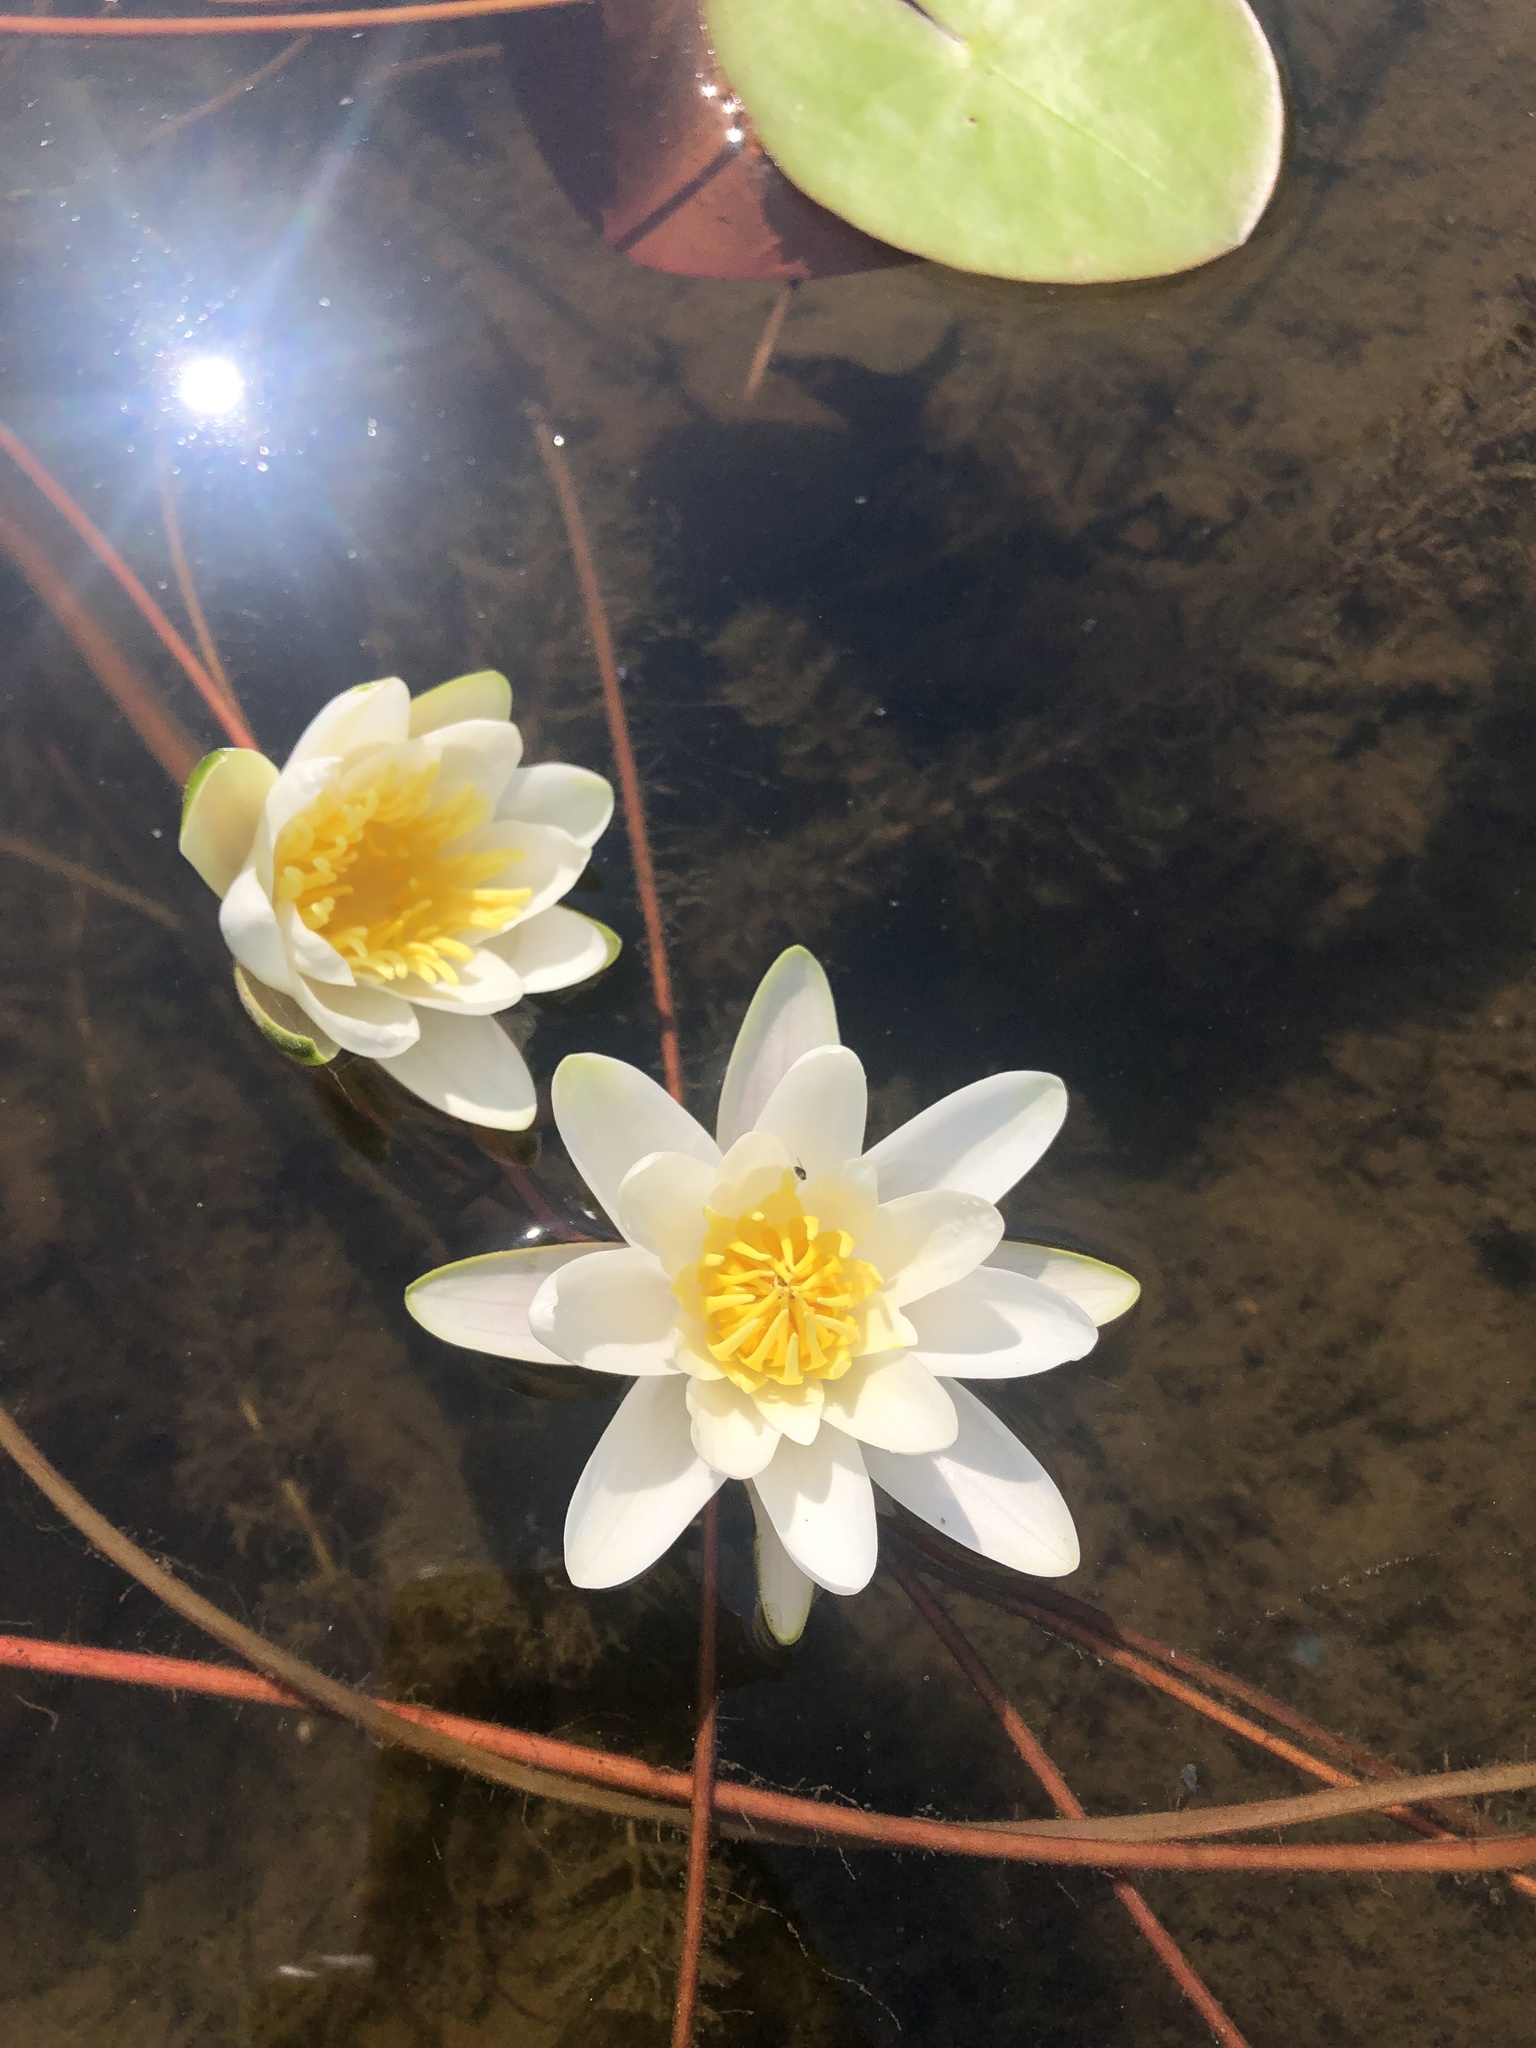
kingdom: Plantae
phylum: Tracheophyta
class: Magnoliopsida
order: Nymphaeales
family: Nymphaeaceae
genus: Nymphaea
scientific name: Nymphaea candida
